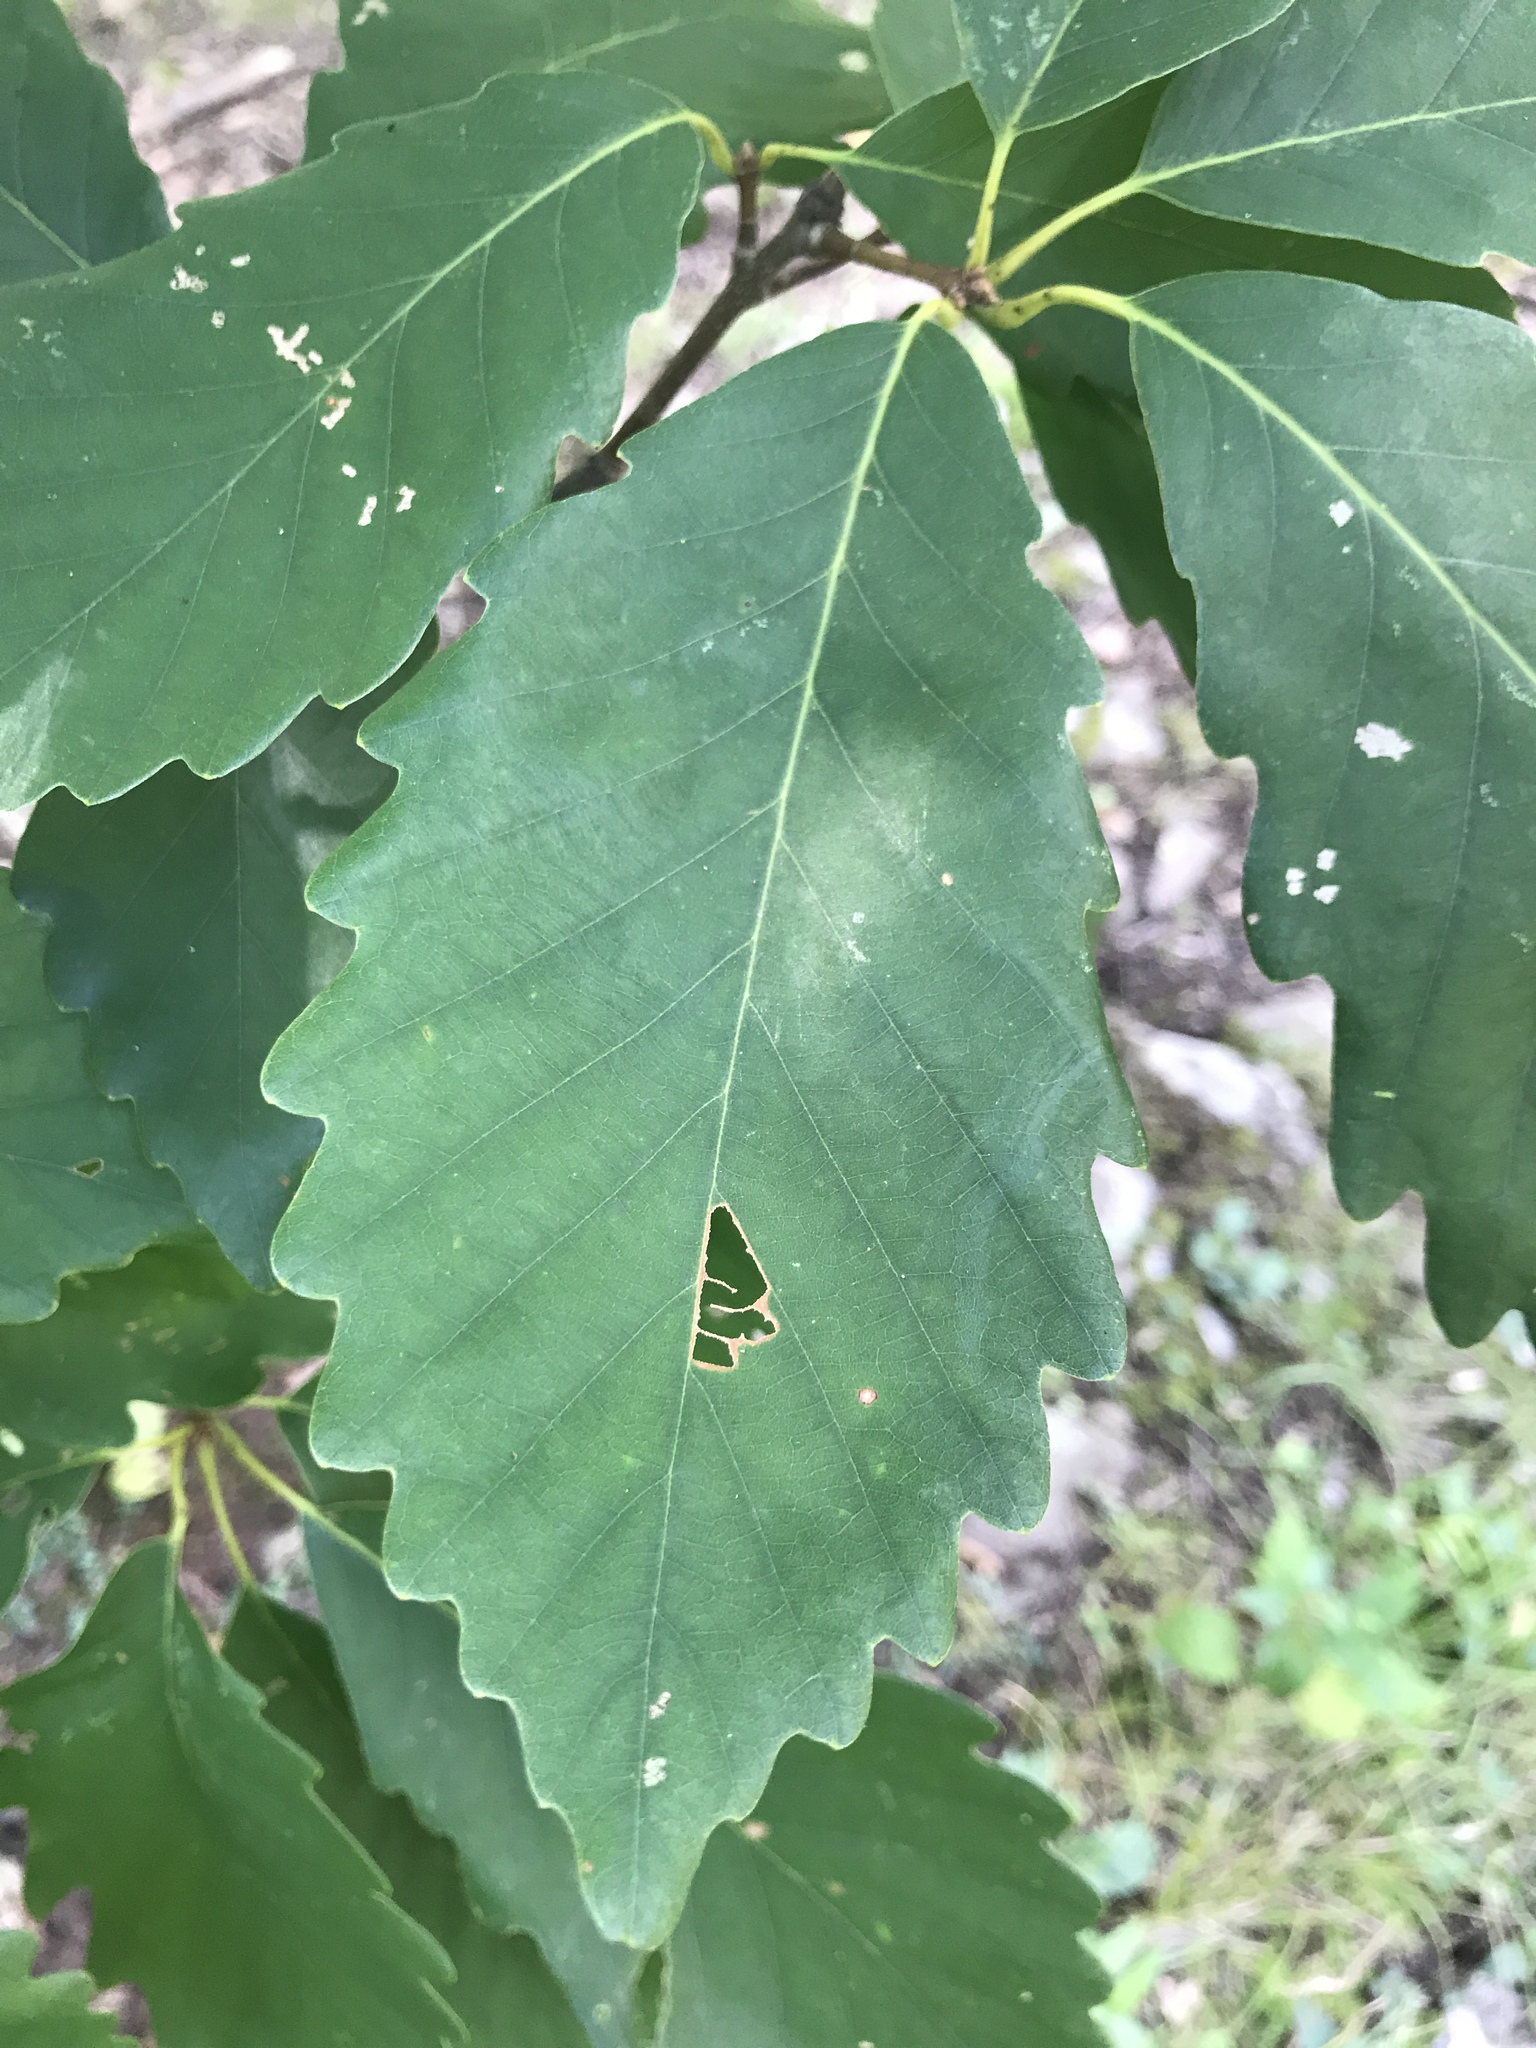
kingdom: Plantae
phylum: Tracheophyta
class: Magnoliopsida
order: Fagales
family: Fagaceae
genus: Quercus
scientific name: Quercus montana
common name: Chestnut oak
